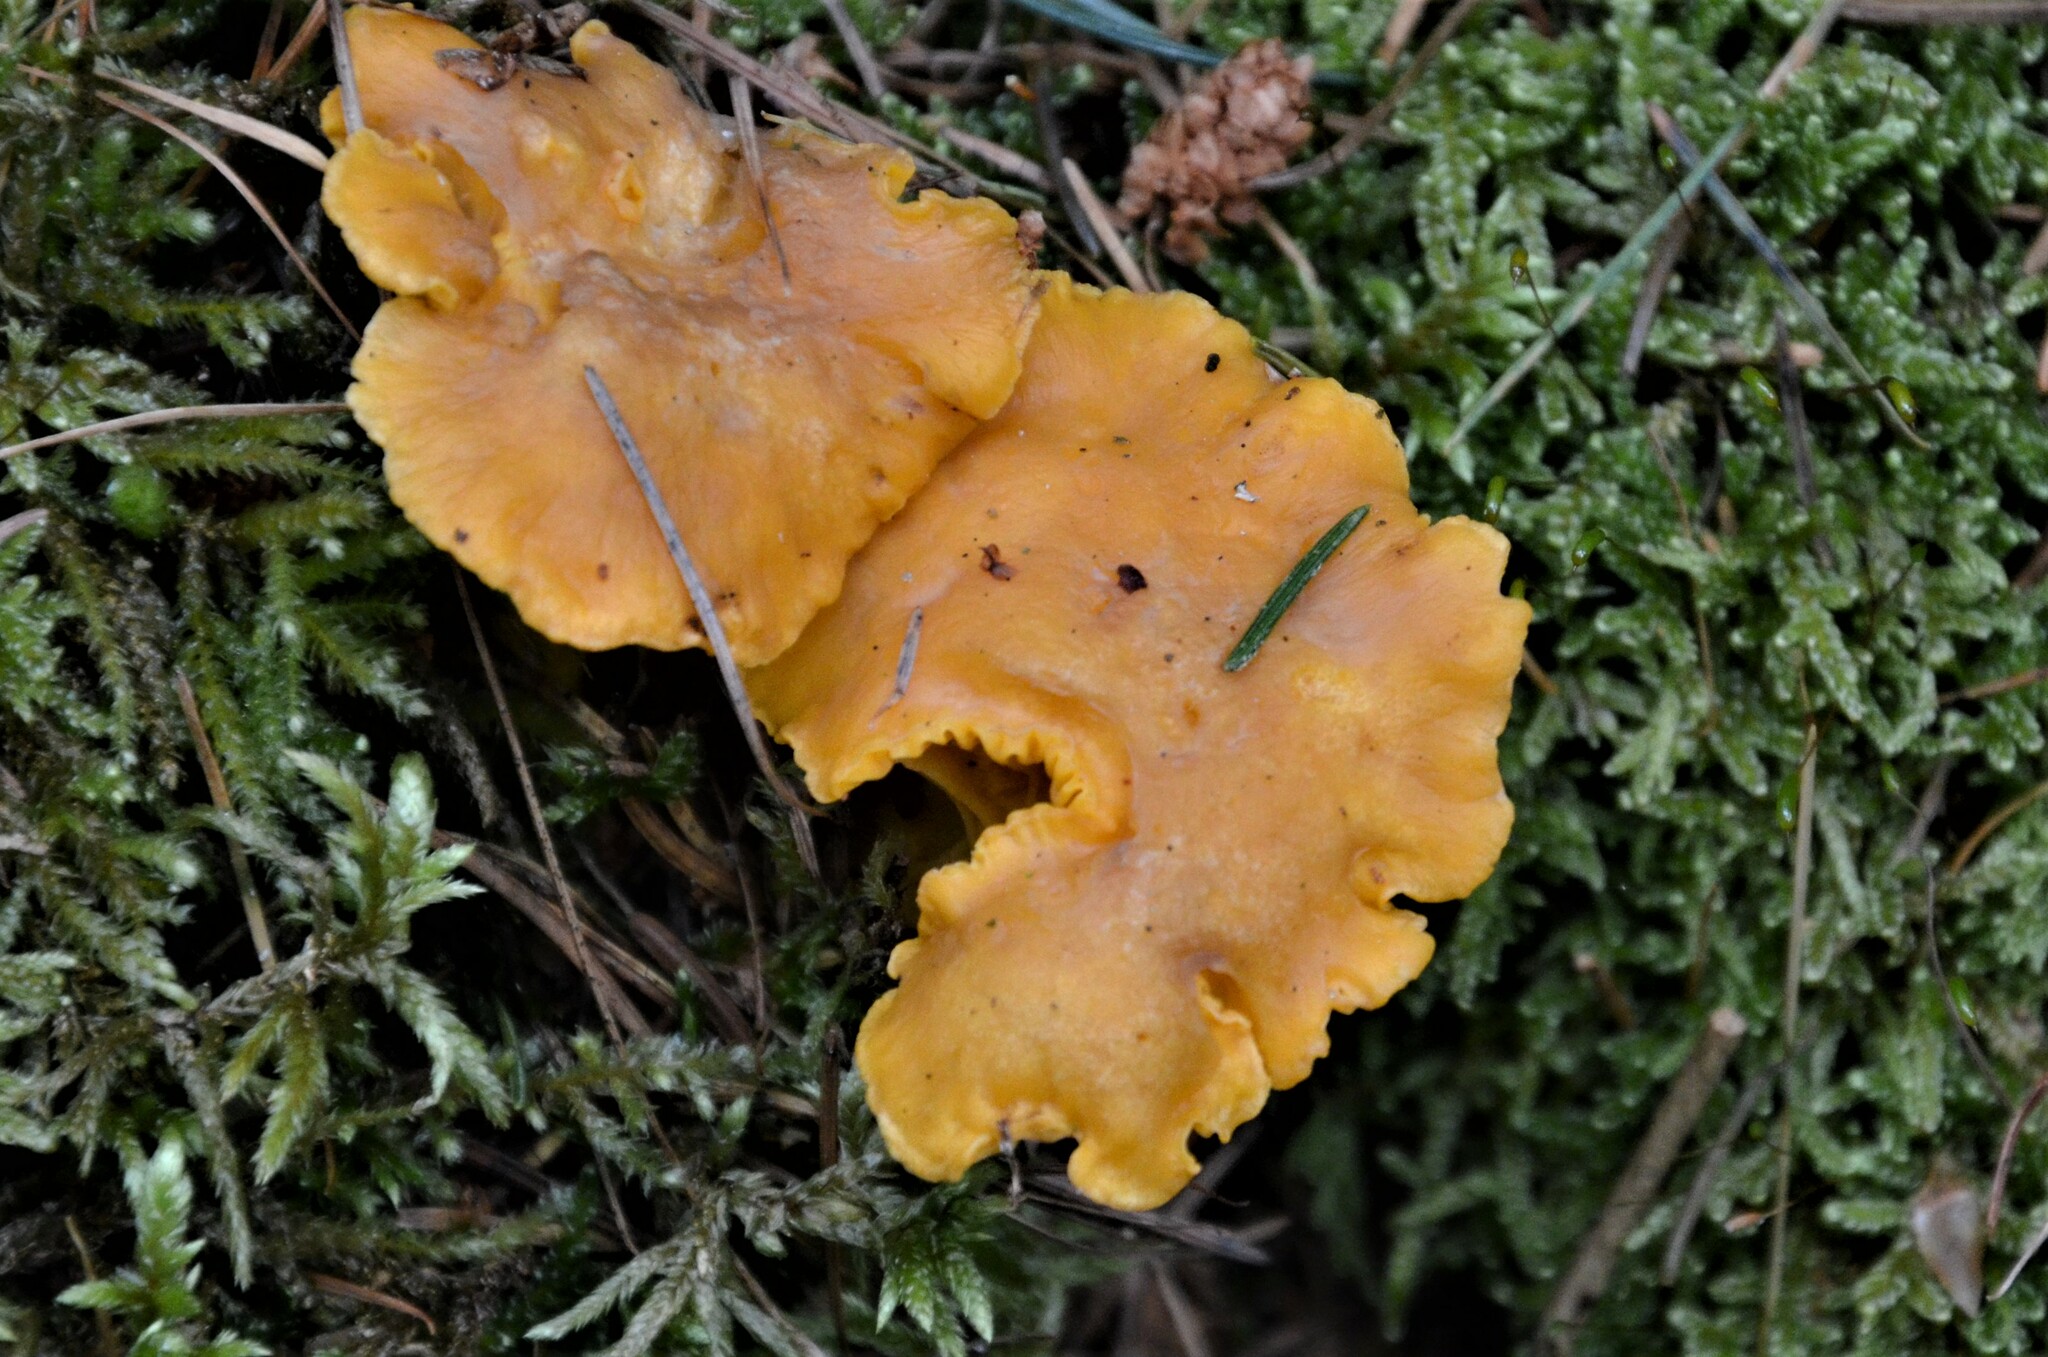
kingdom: Fungi
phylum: Basidiomycota
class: Agaricomycetes
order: Cantharellales
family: Hydnaceae
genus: Cantharellus
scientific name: Cantharellus cibarius
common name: Chanterelle
